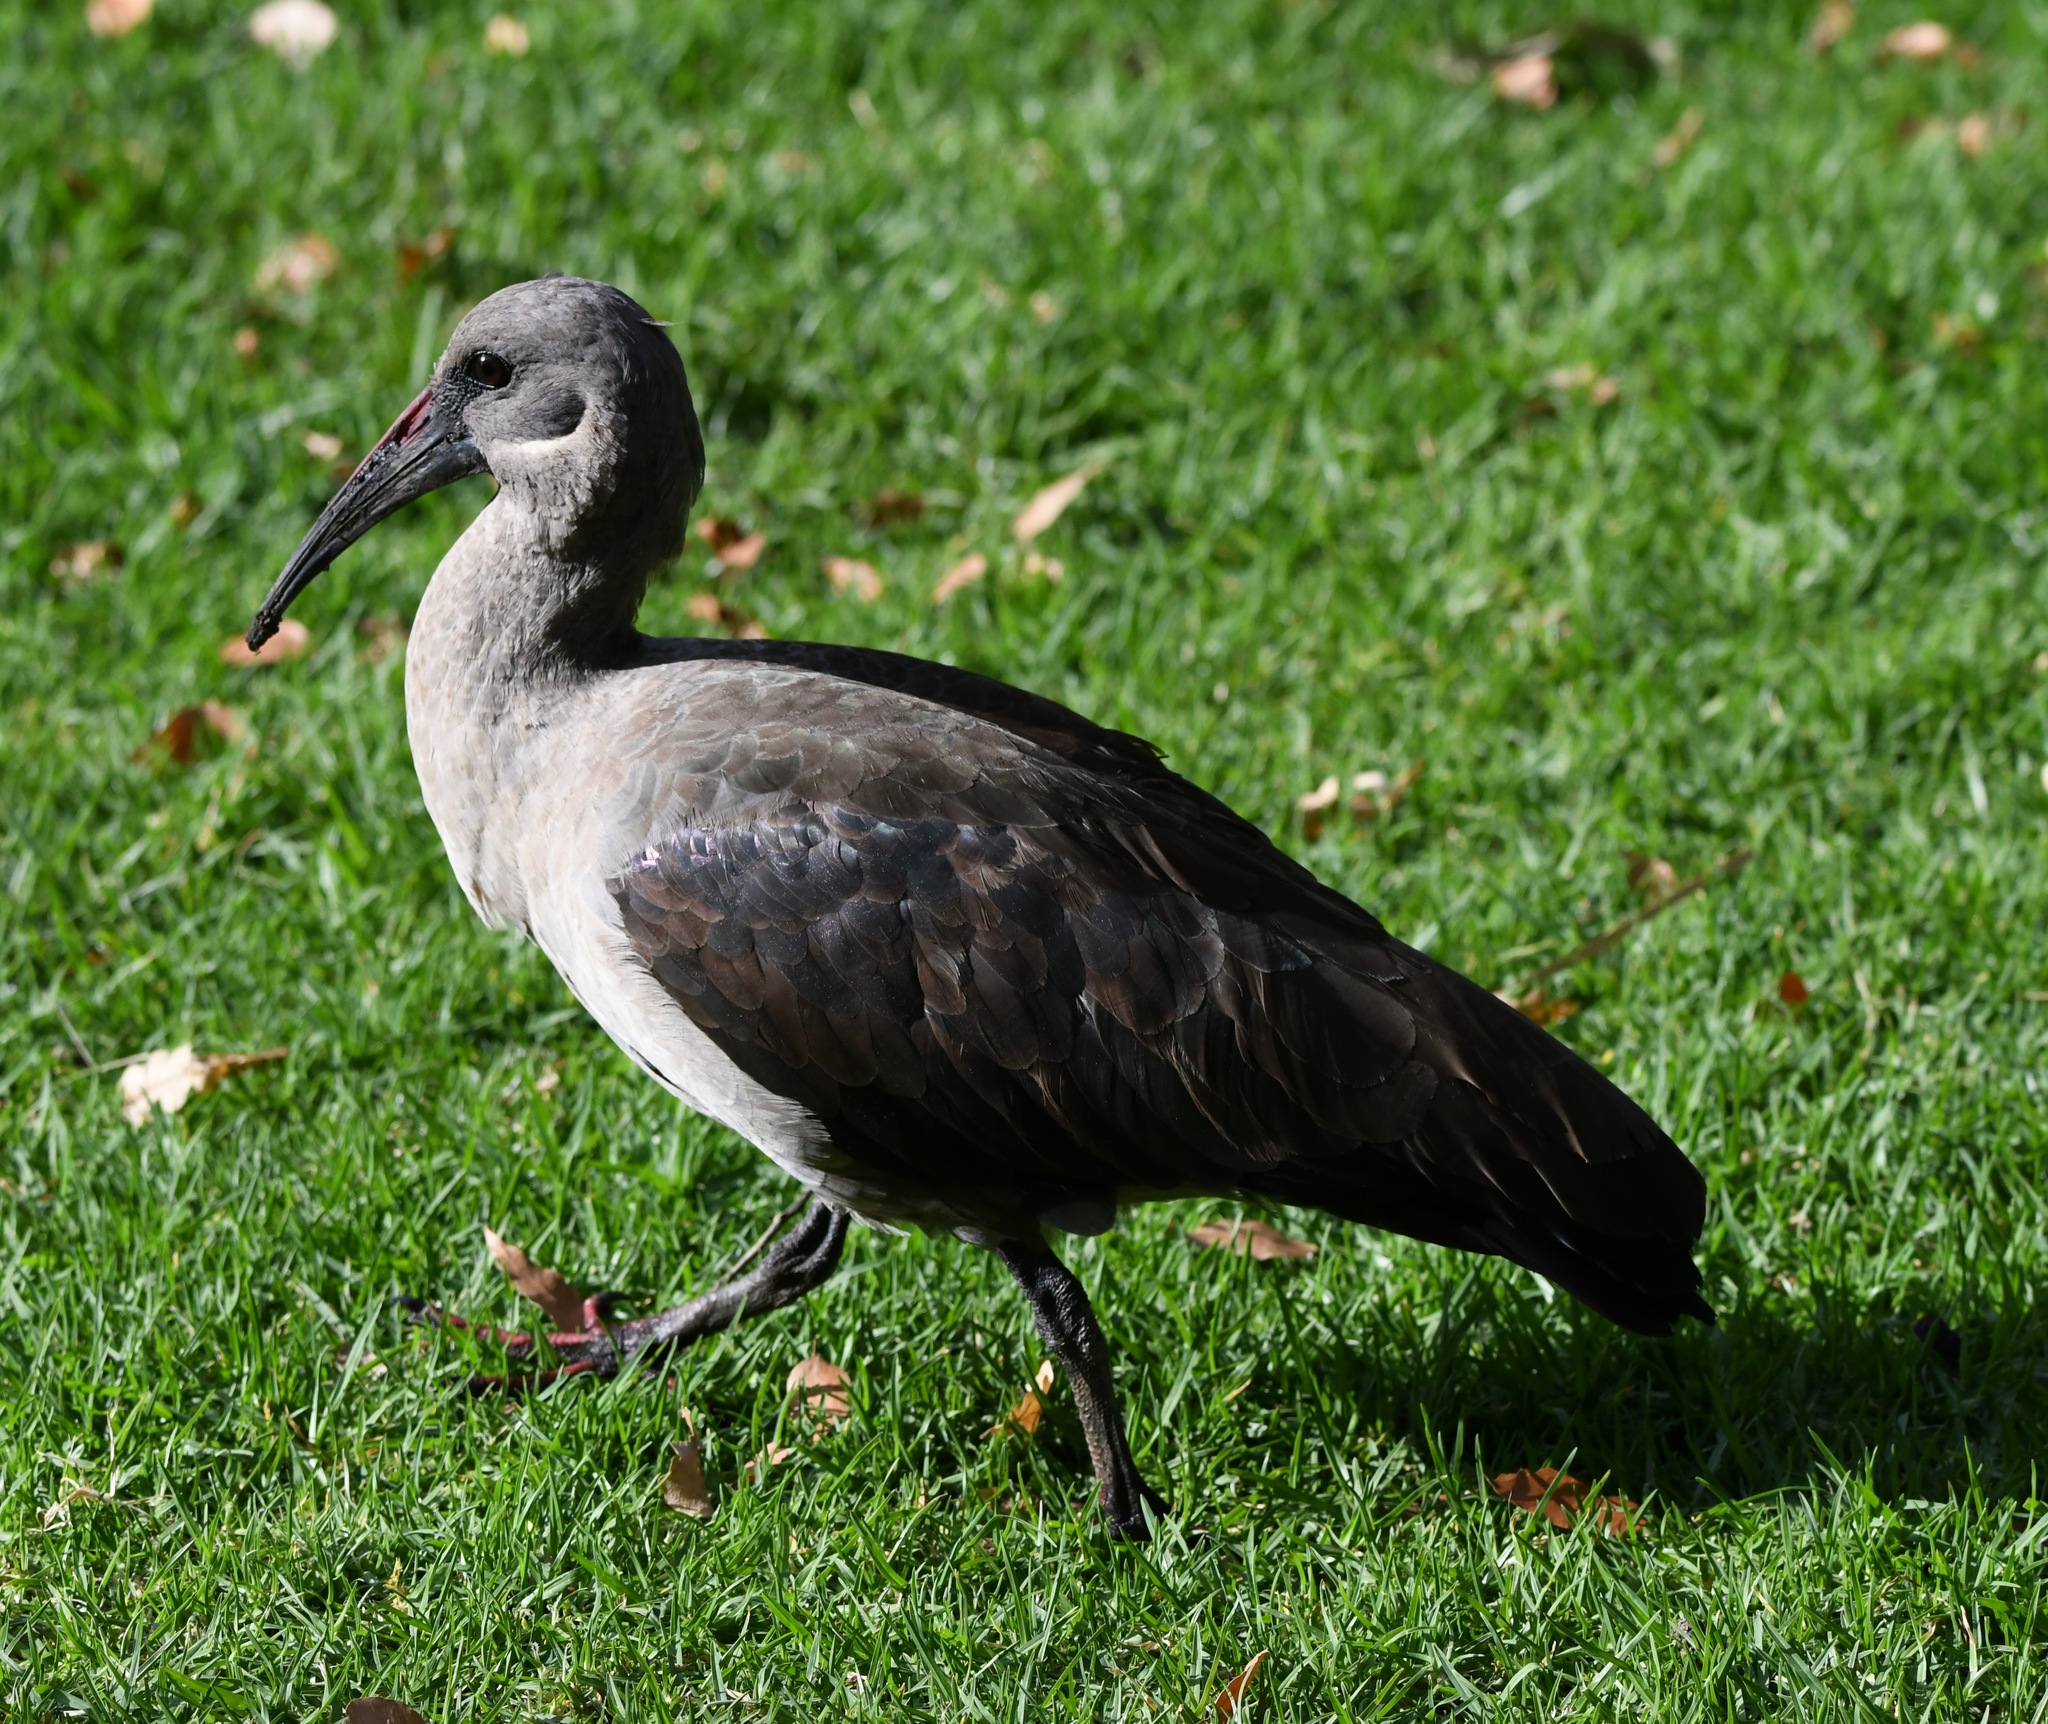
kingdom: Animalia
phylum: Chordata
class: Aves
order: Pelecaniformes
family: Threskiornithidae
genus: Bostrychia
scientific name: Bostrychia hagedash
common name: Hadada ibis
